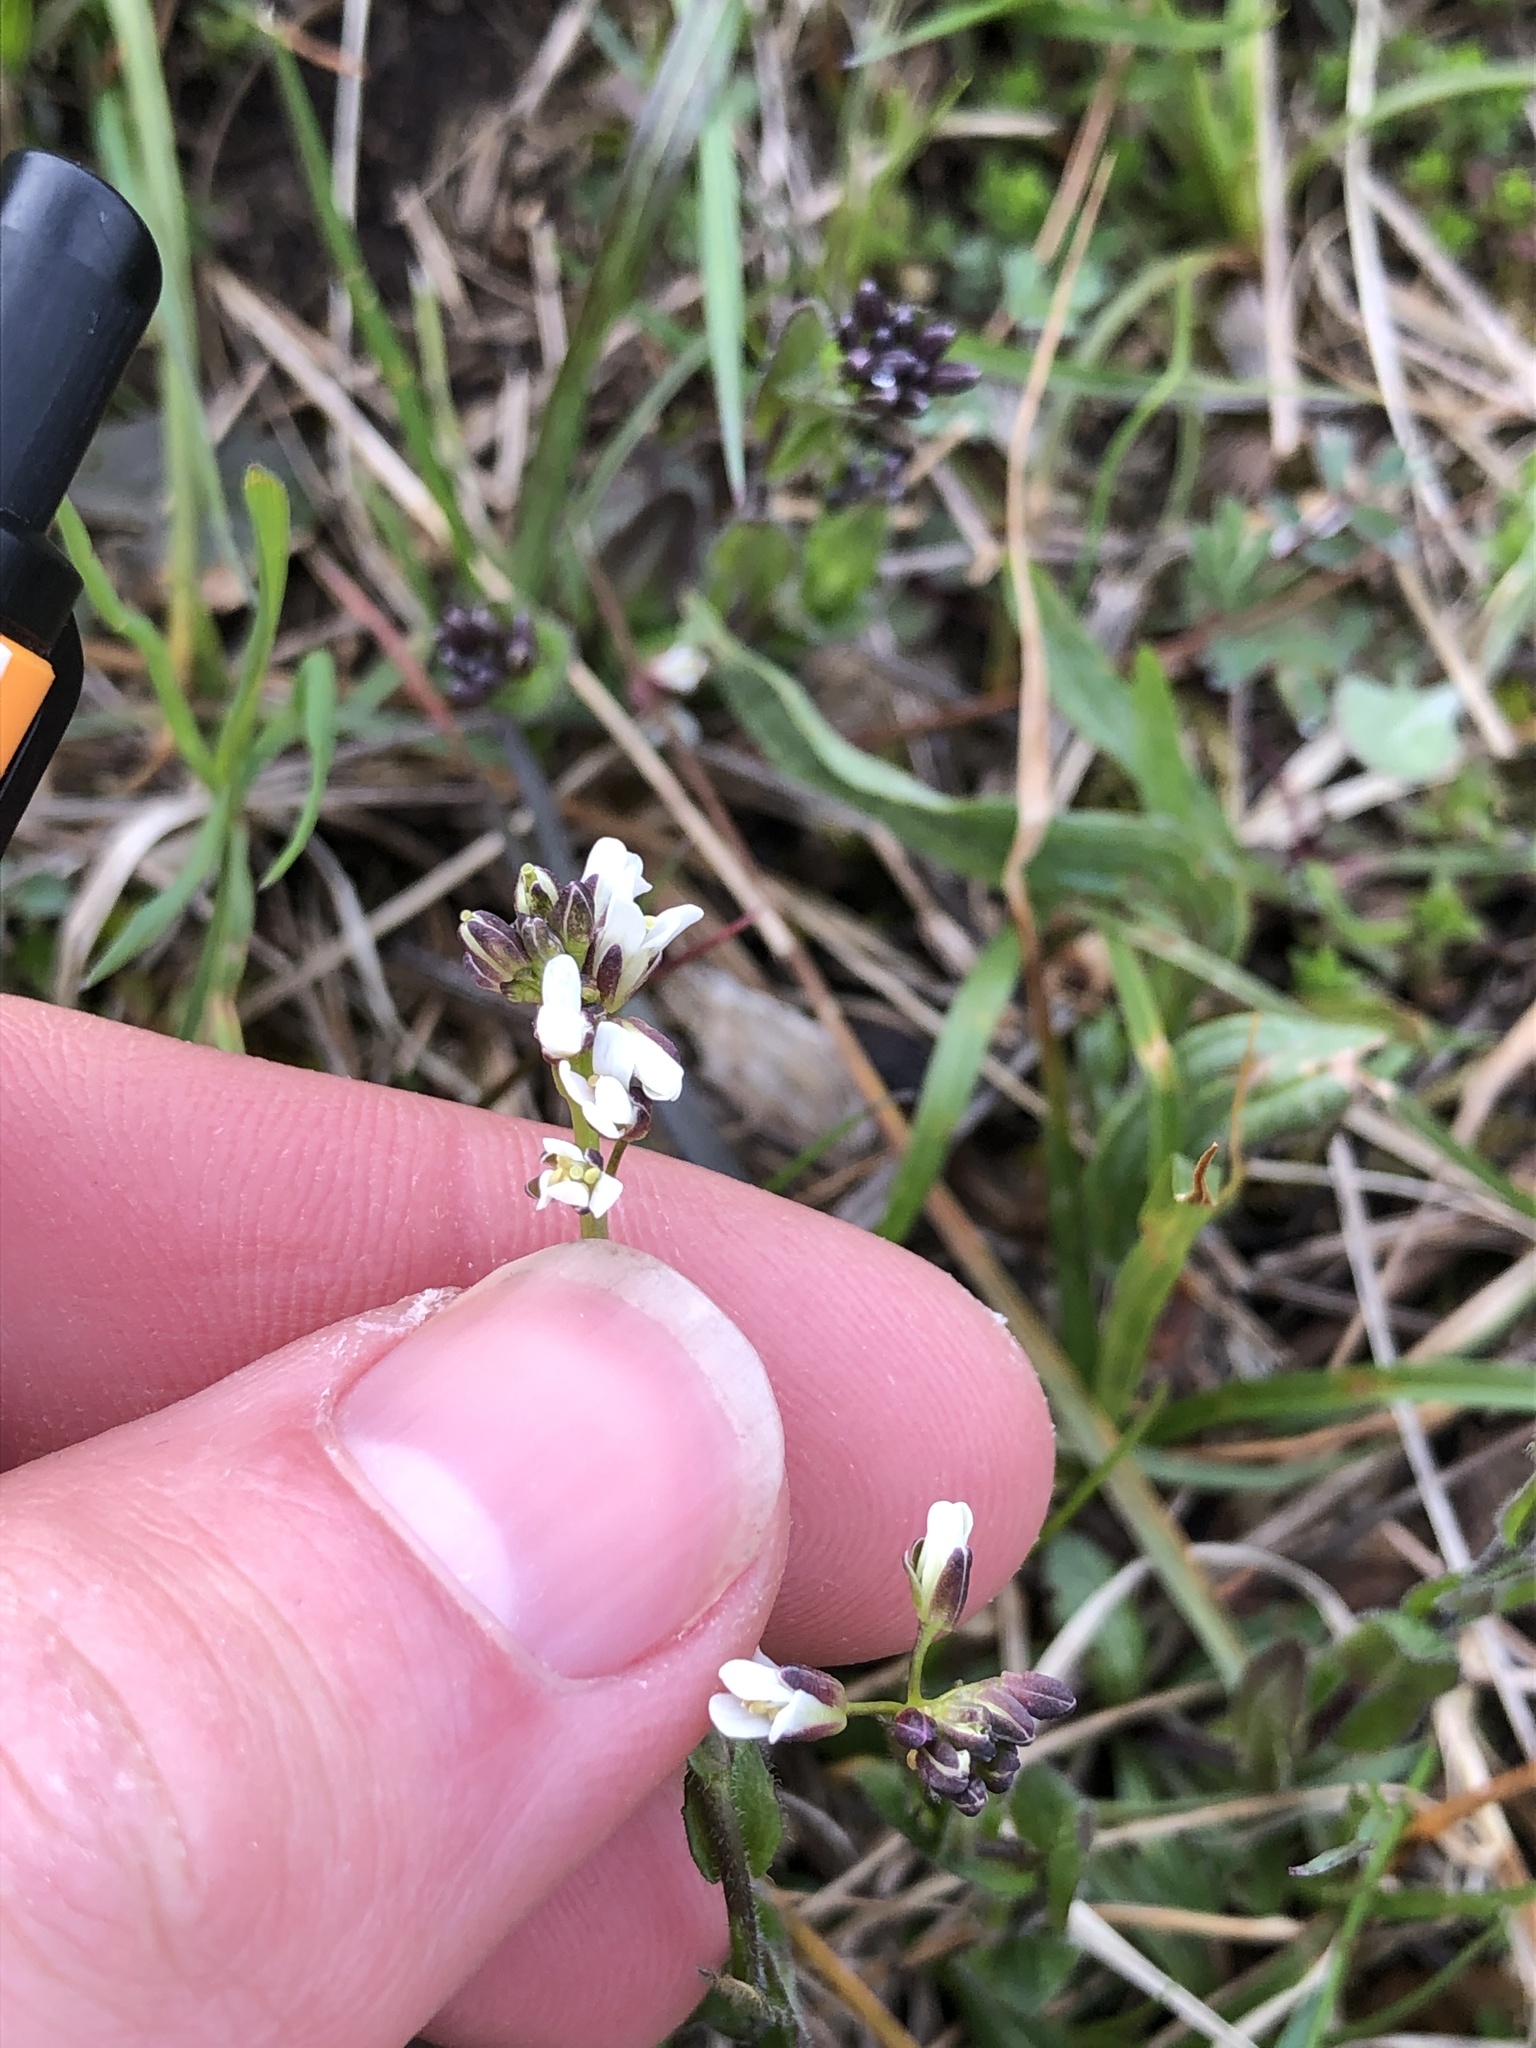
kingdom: Plantae
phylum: Tracheophyta
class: Magnoliopsida
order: Brassicales
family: Brassicaceae
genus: Arabis
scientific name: Arabis hirsuta
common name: Hairy rock-cress
